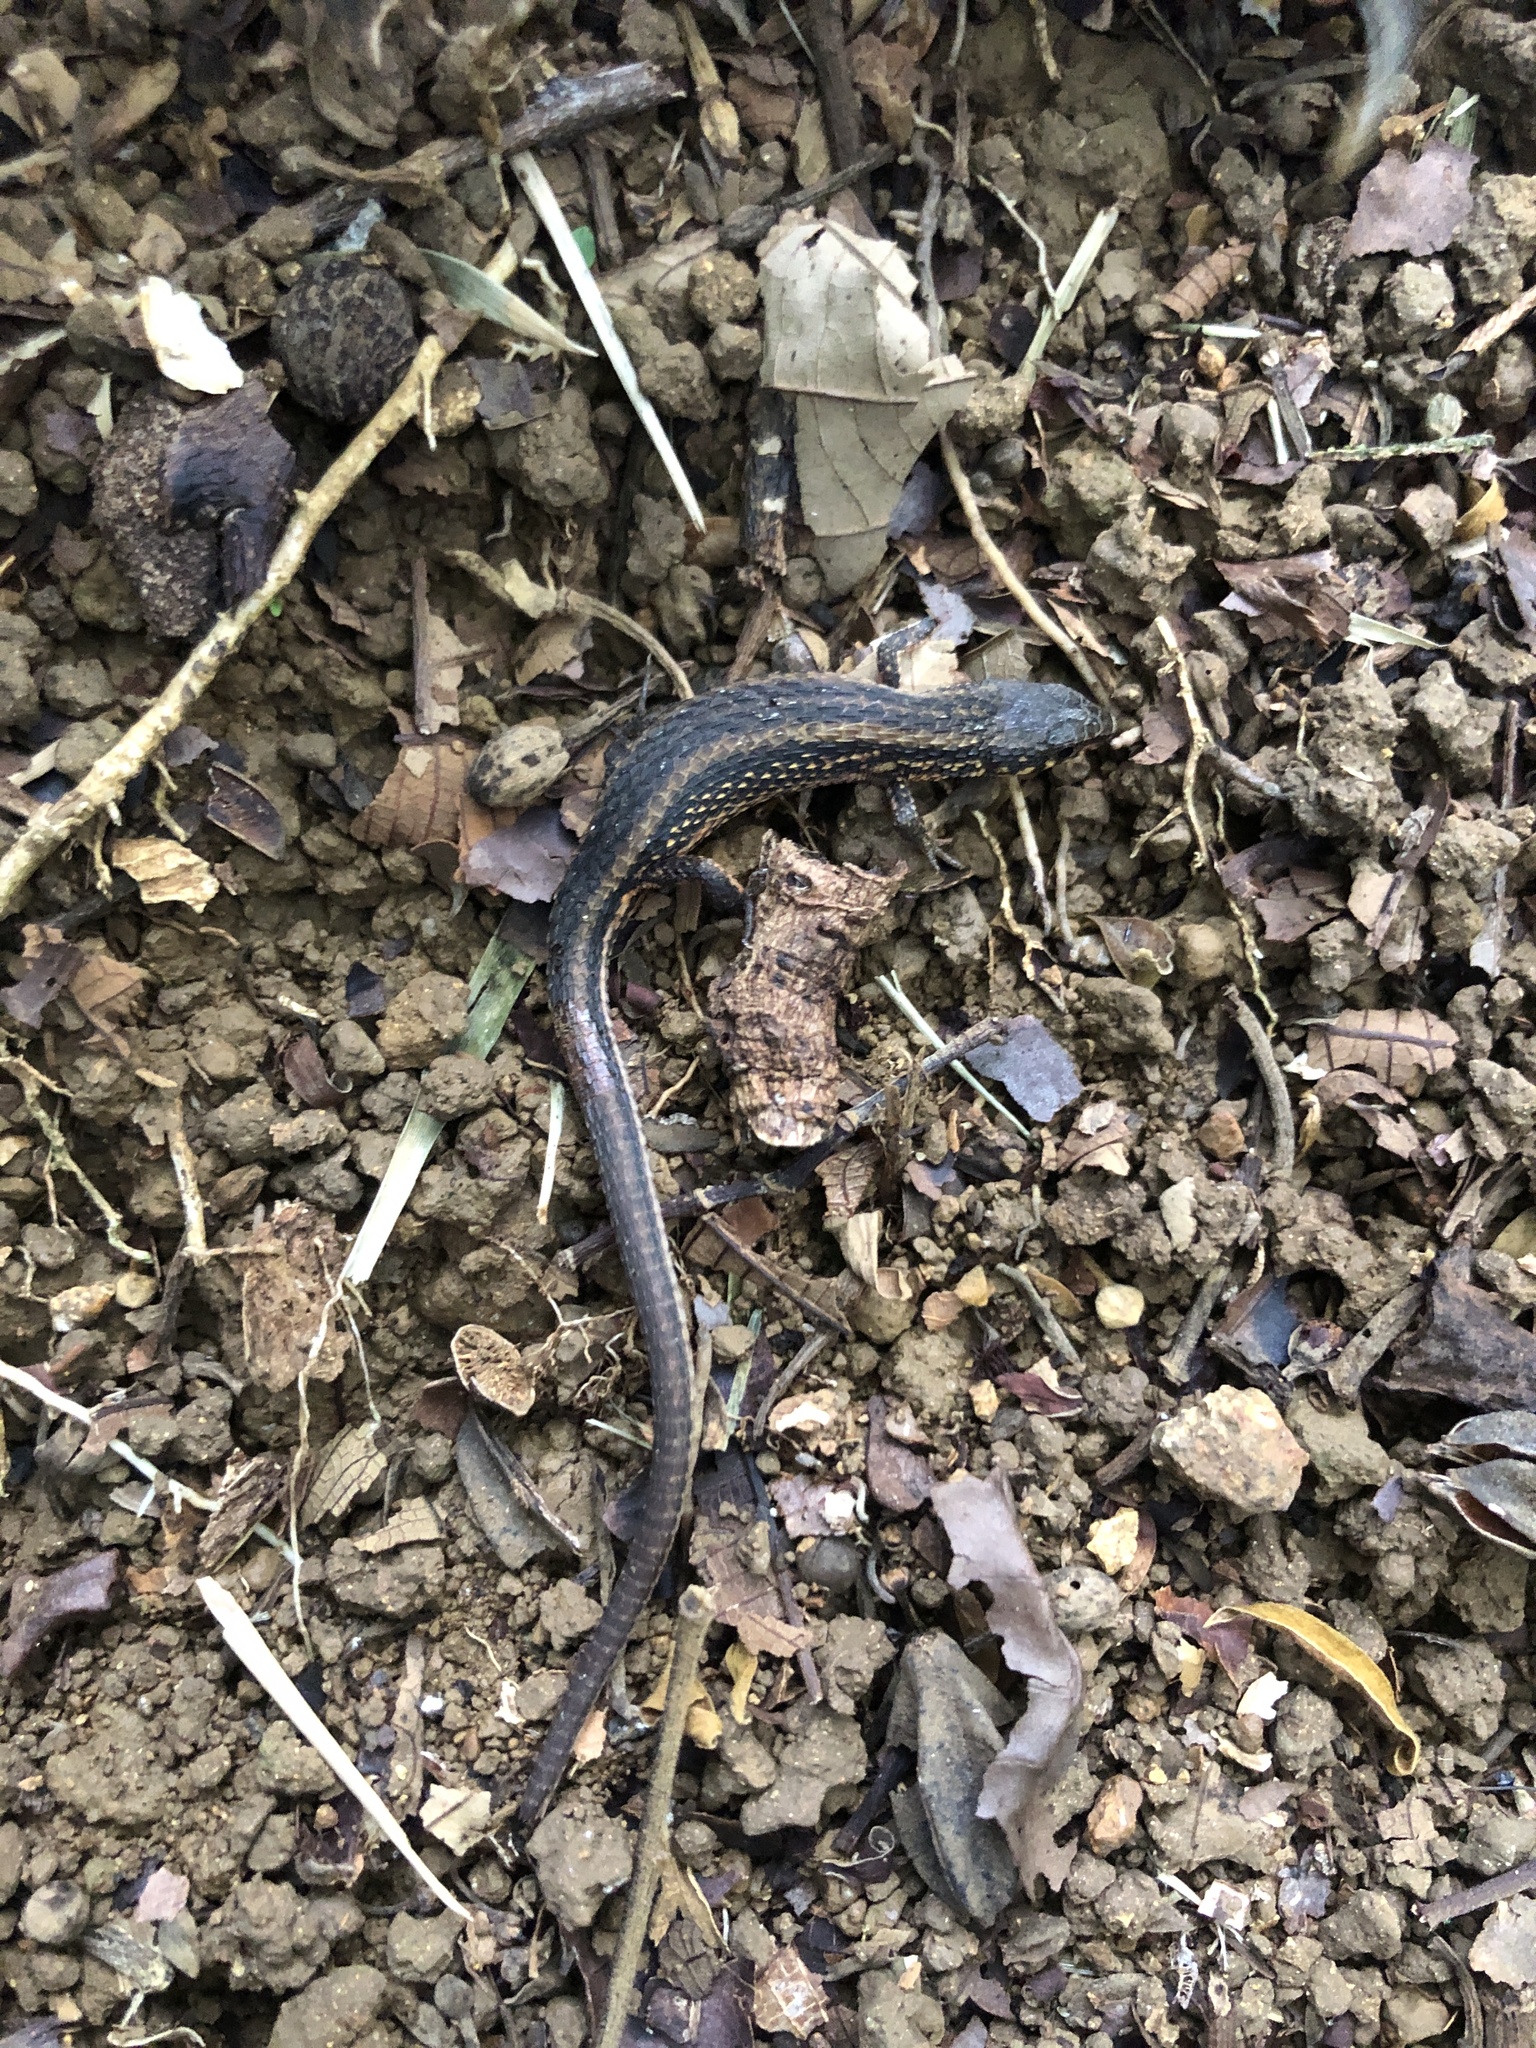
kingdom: Animalia
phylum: Chordata
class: Squamata
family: Gymnophthalmidae
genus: Loxopholis
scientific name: Loxopholis rugiceps
